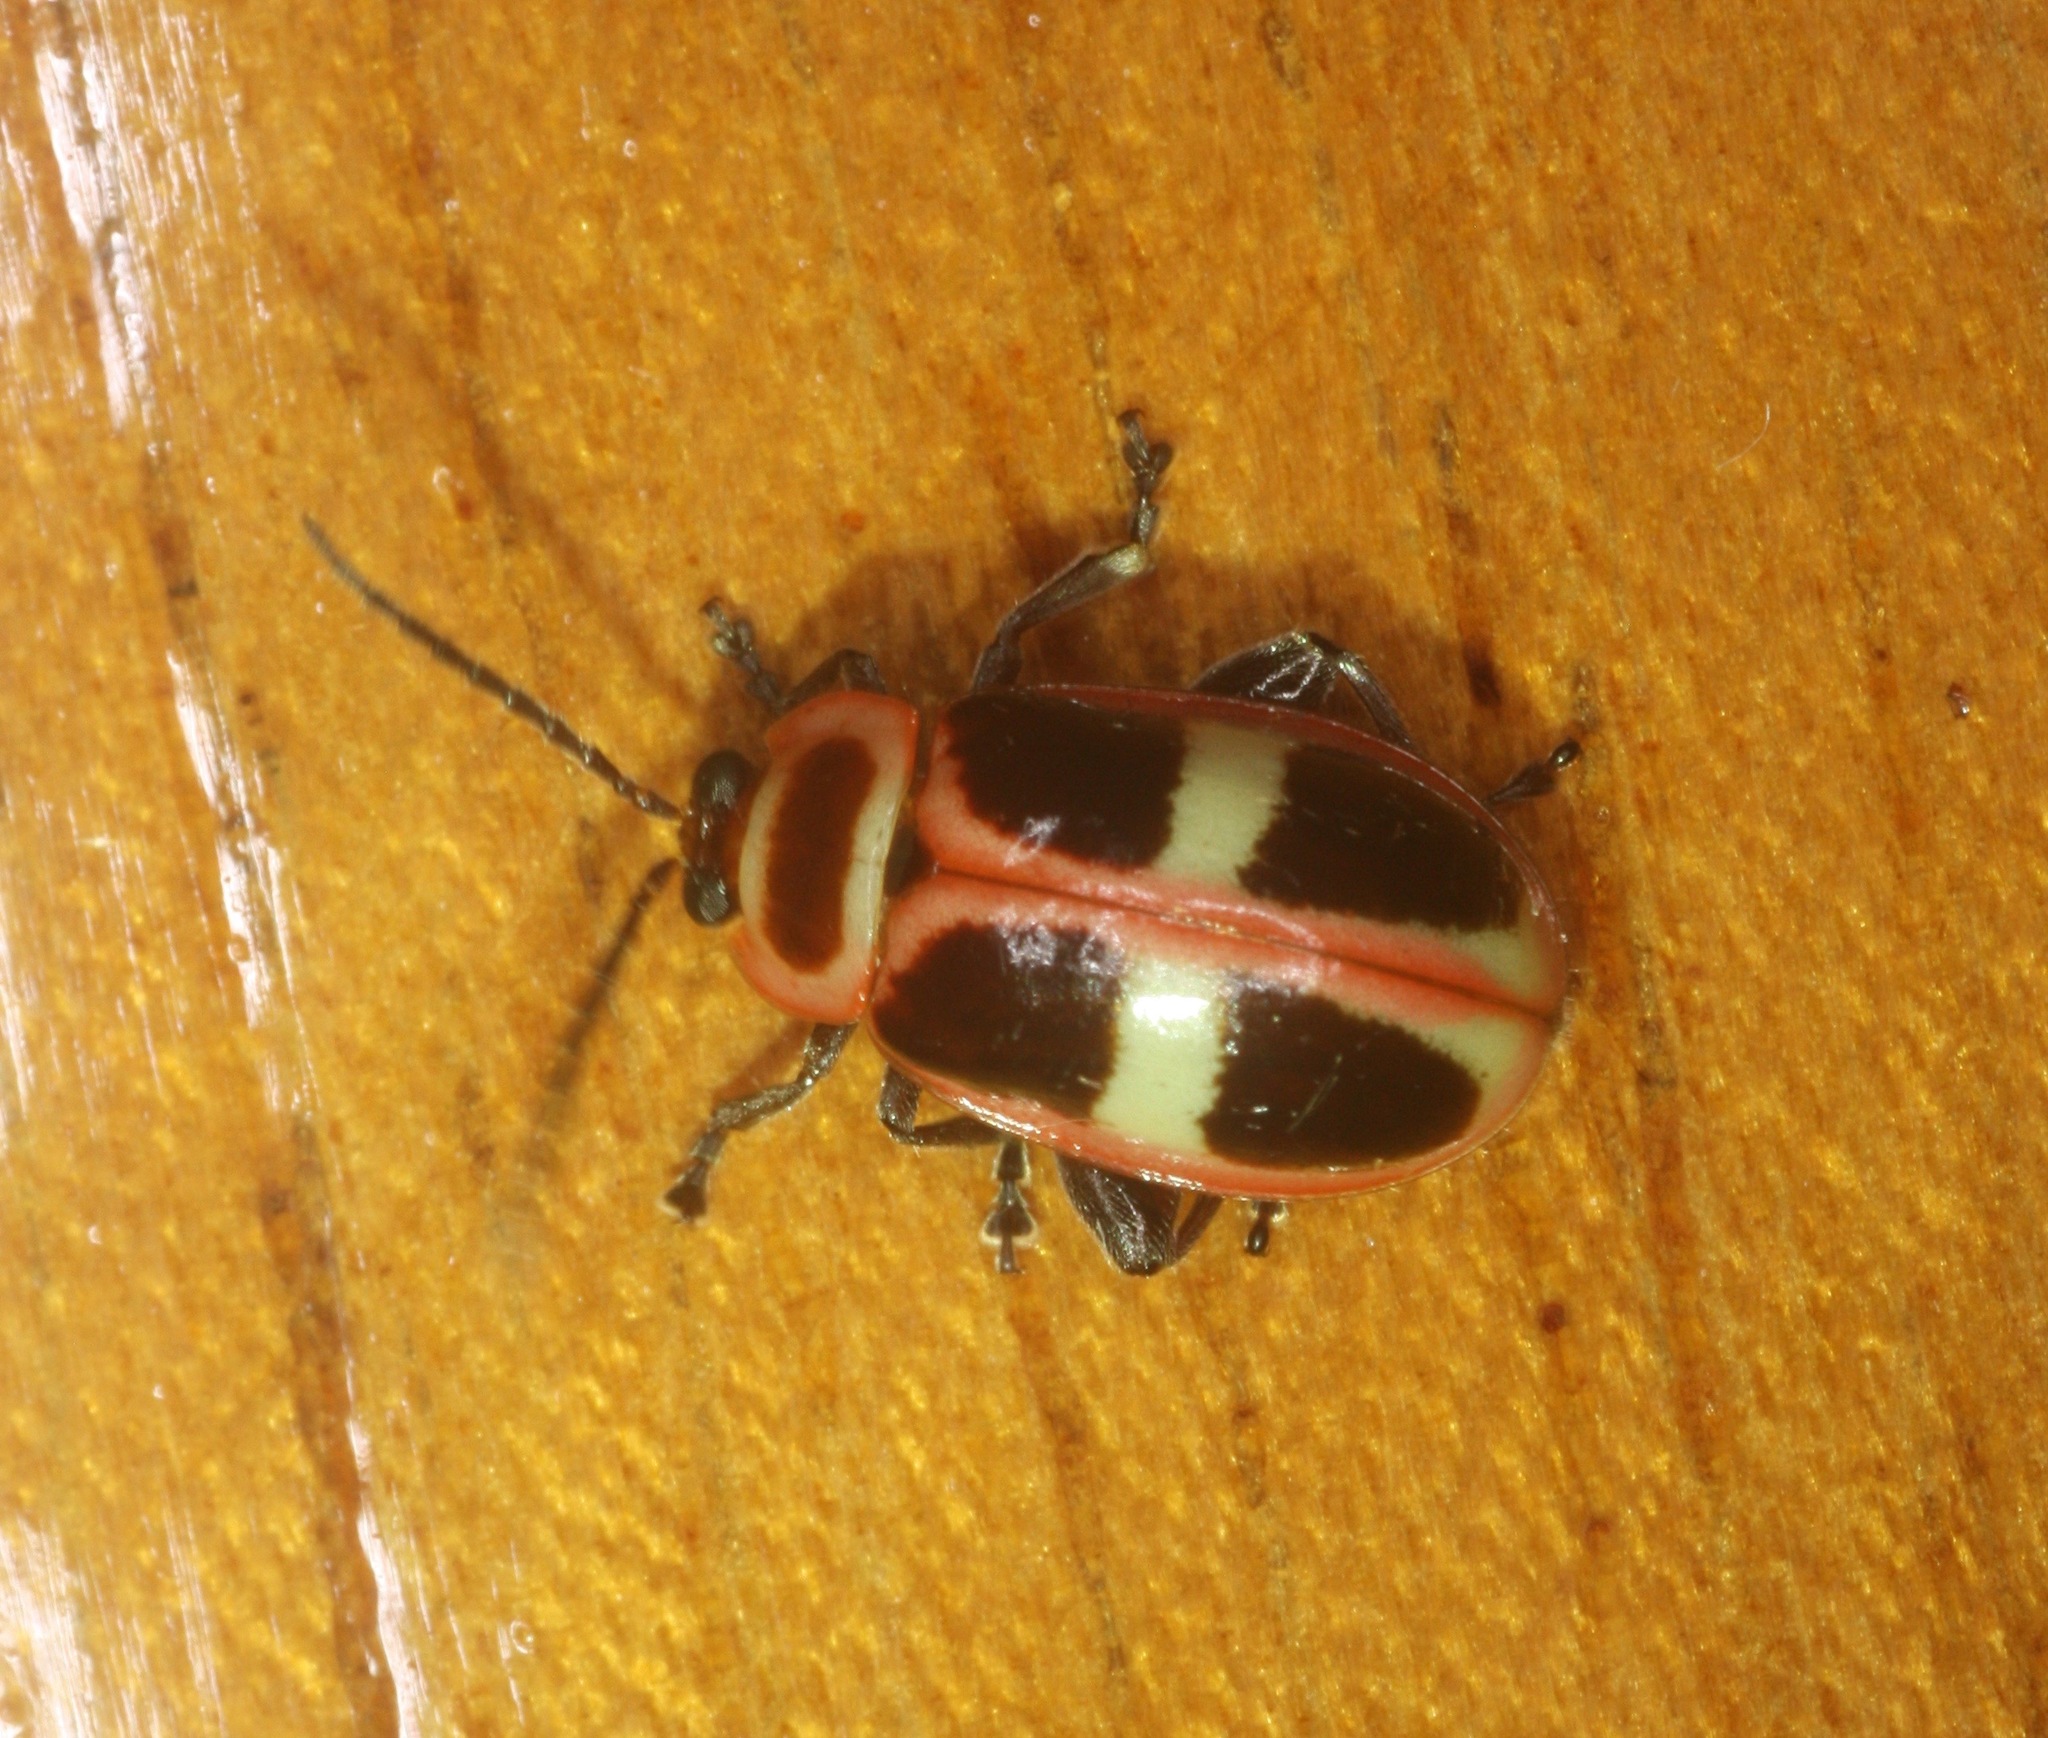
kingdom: Animalia
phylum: Arthropoda
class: Insecta
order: Coleoptera
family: Chrysomelidae
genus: Asphaera
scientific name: Asphaera
